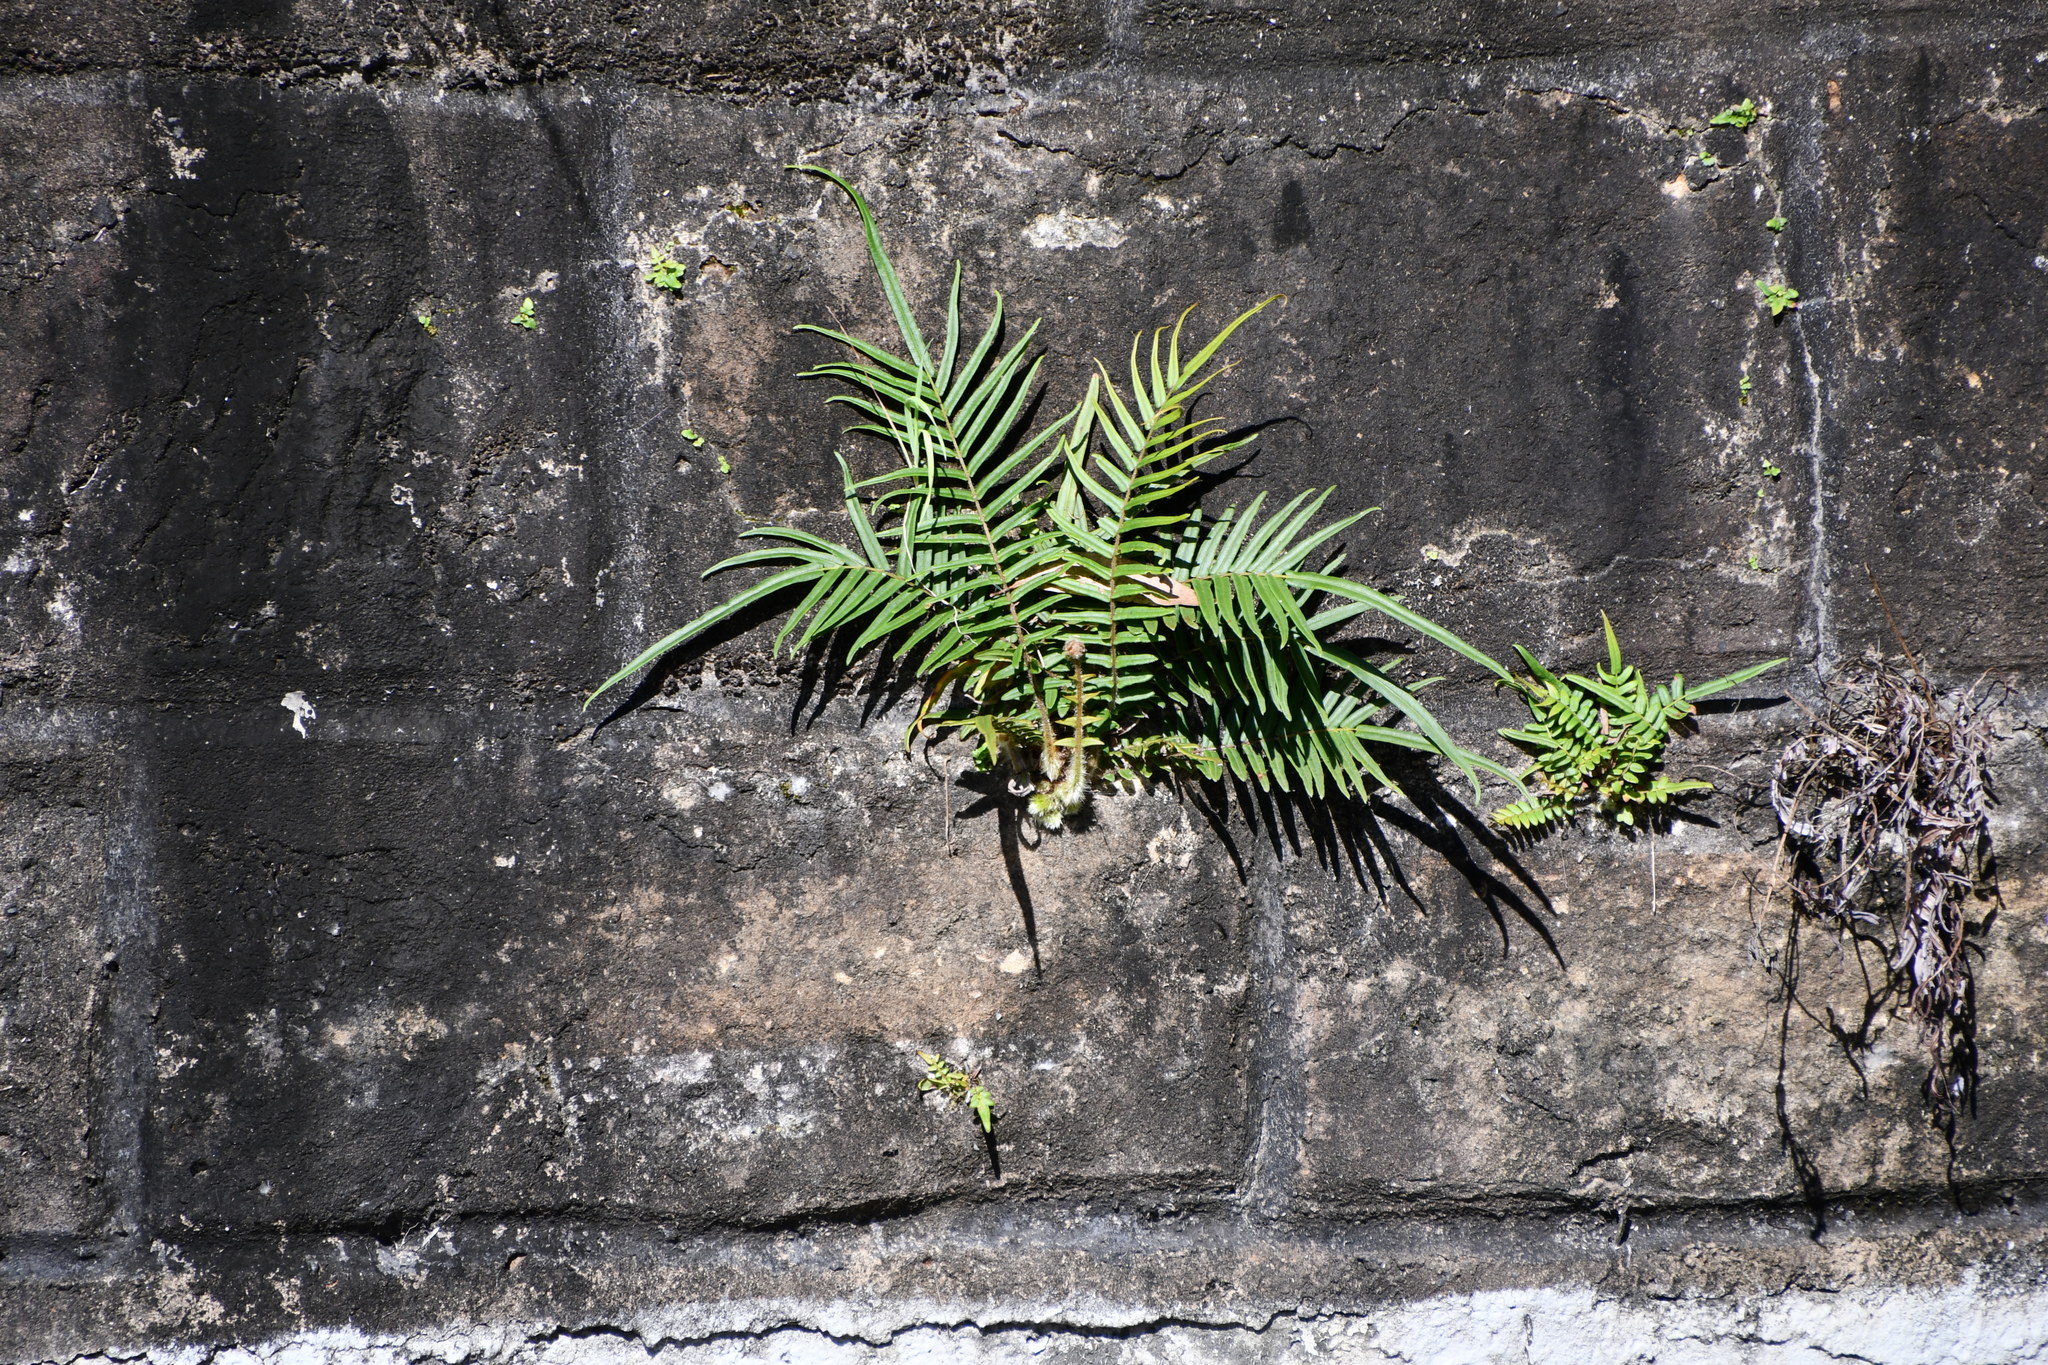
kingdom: Plantae
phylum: Tracheophyta
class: Polypodiopsida
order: Polypodiales
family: Pteridaceae
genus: Pteris
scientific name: Pteris vittata
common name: Ladder brake
